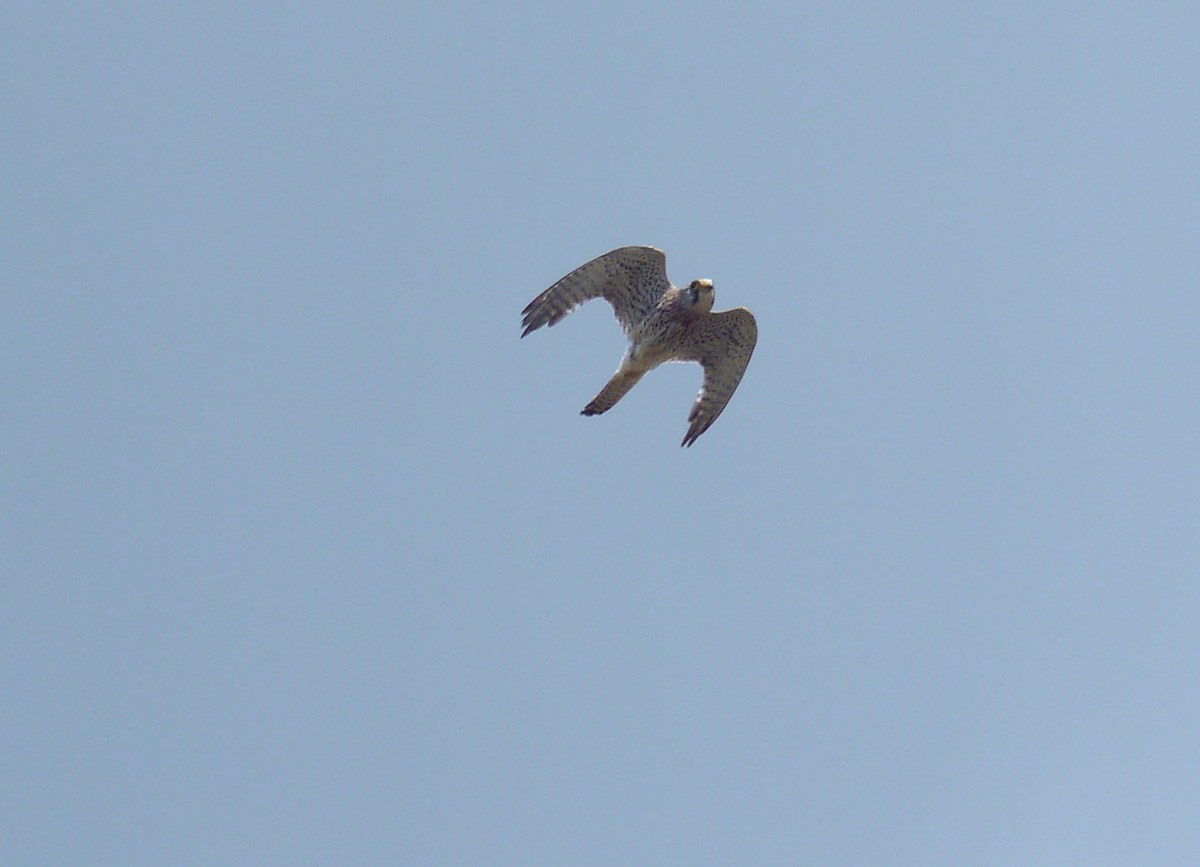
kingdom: Animalia
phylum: Chordata
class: Aves
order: Falconiformes
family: Falconidae
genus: Falco
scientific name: Falco tinnunculus
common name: Common kestrel
